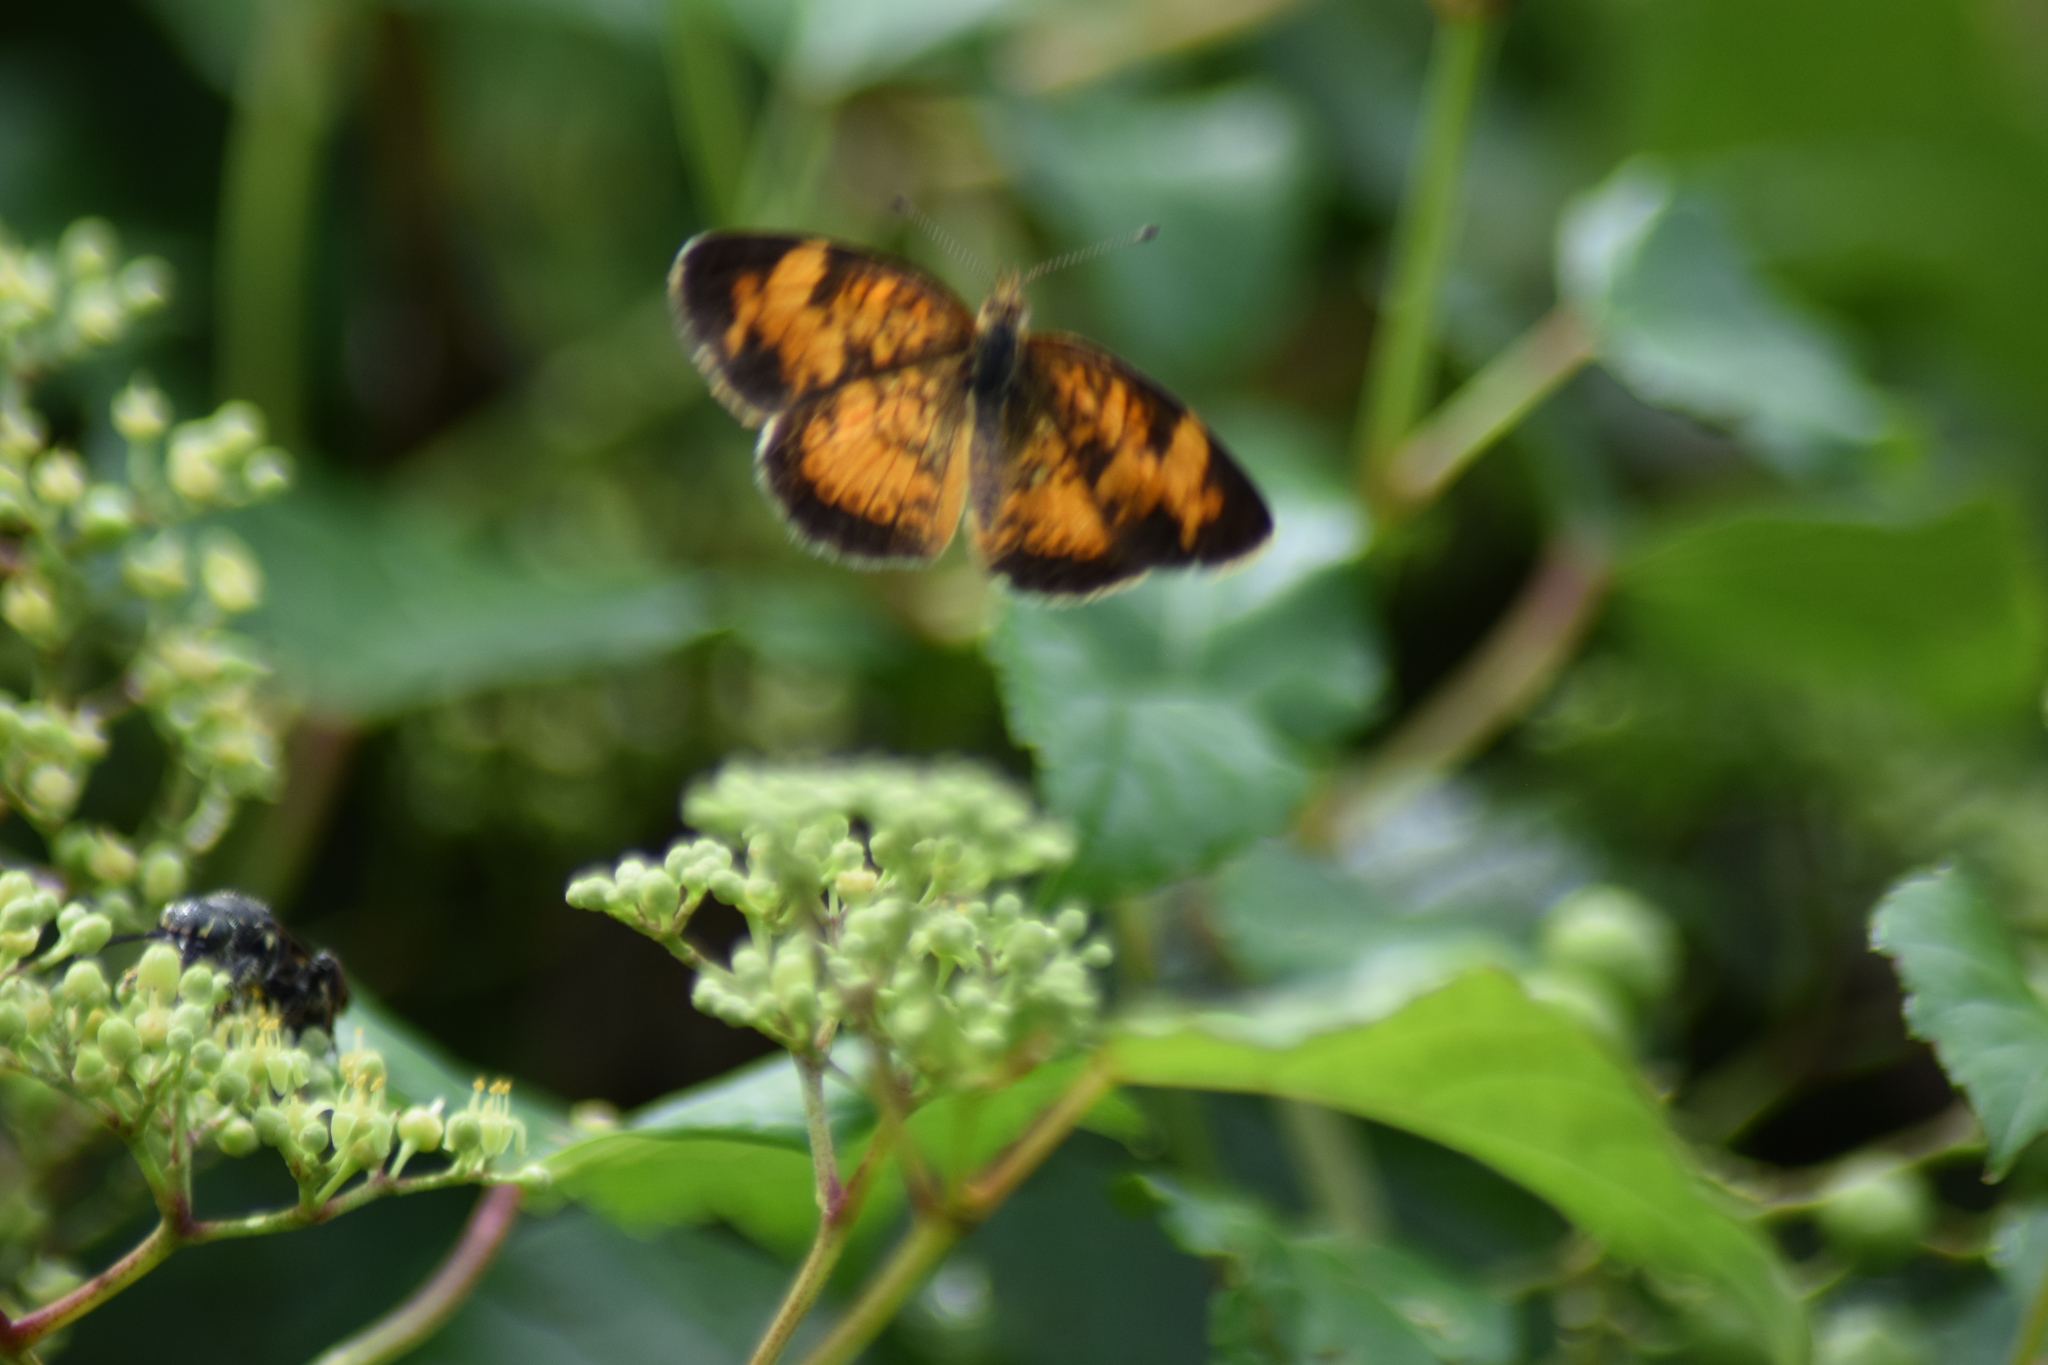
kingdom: Animalia
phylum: Arthropoda
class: Insecta
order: Lepidoptera
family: Nymphalidae
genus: Phyciodes
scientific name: Phyciodes tharos
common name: Pearl crescent
